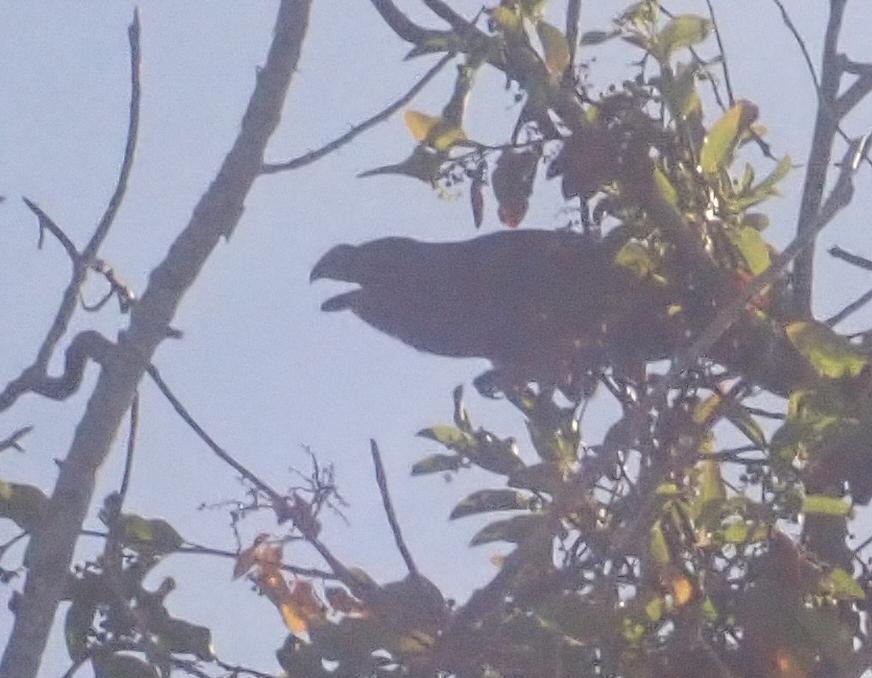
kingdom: Animalia
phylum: Chordata
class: Aves
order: Cuculiformes
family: Cuculidae
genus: Crotophaga
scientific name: Crotophaga ani
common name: Smooth-billed ani
